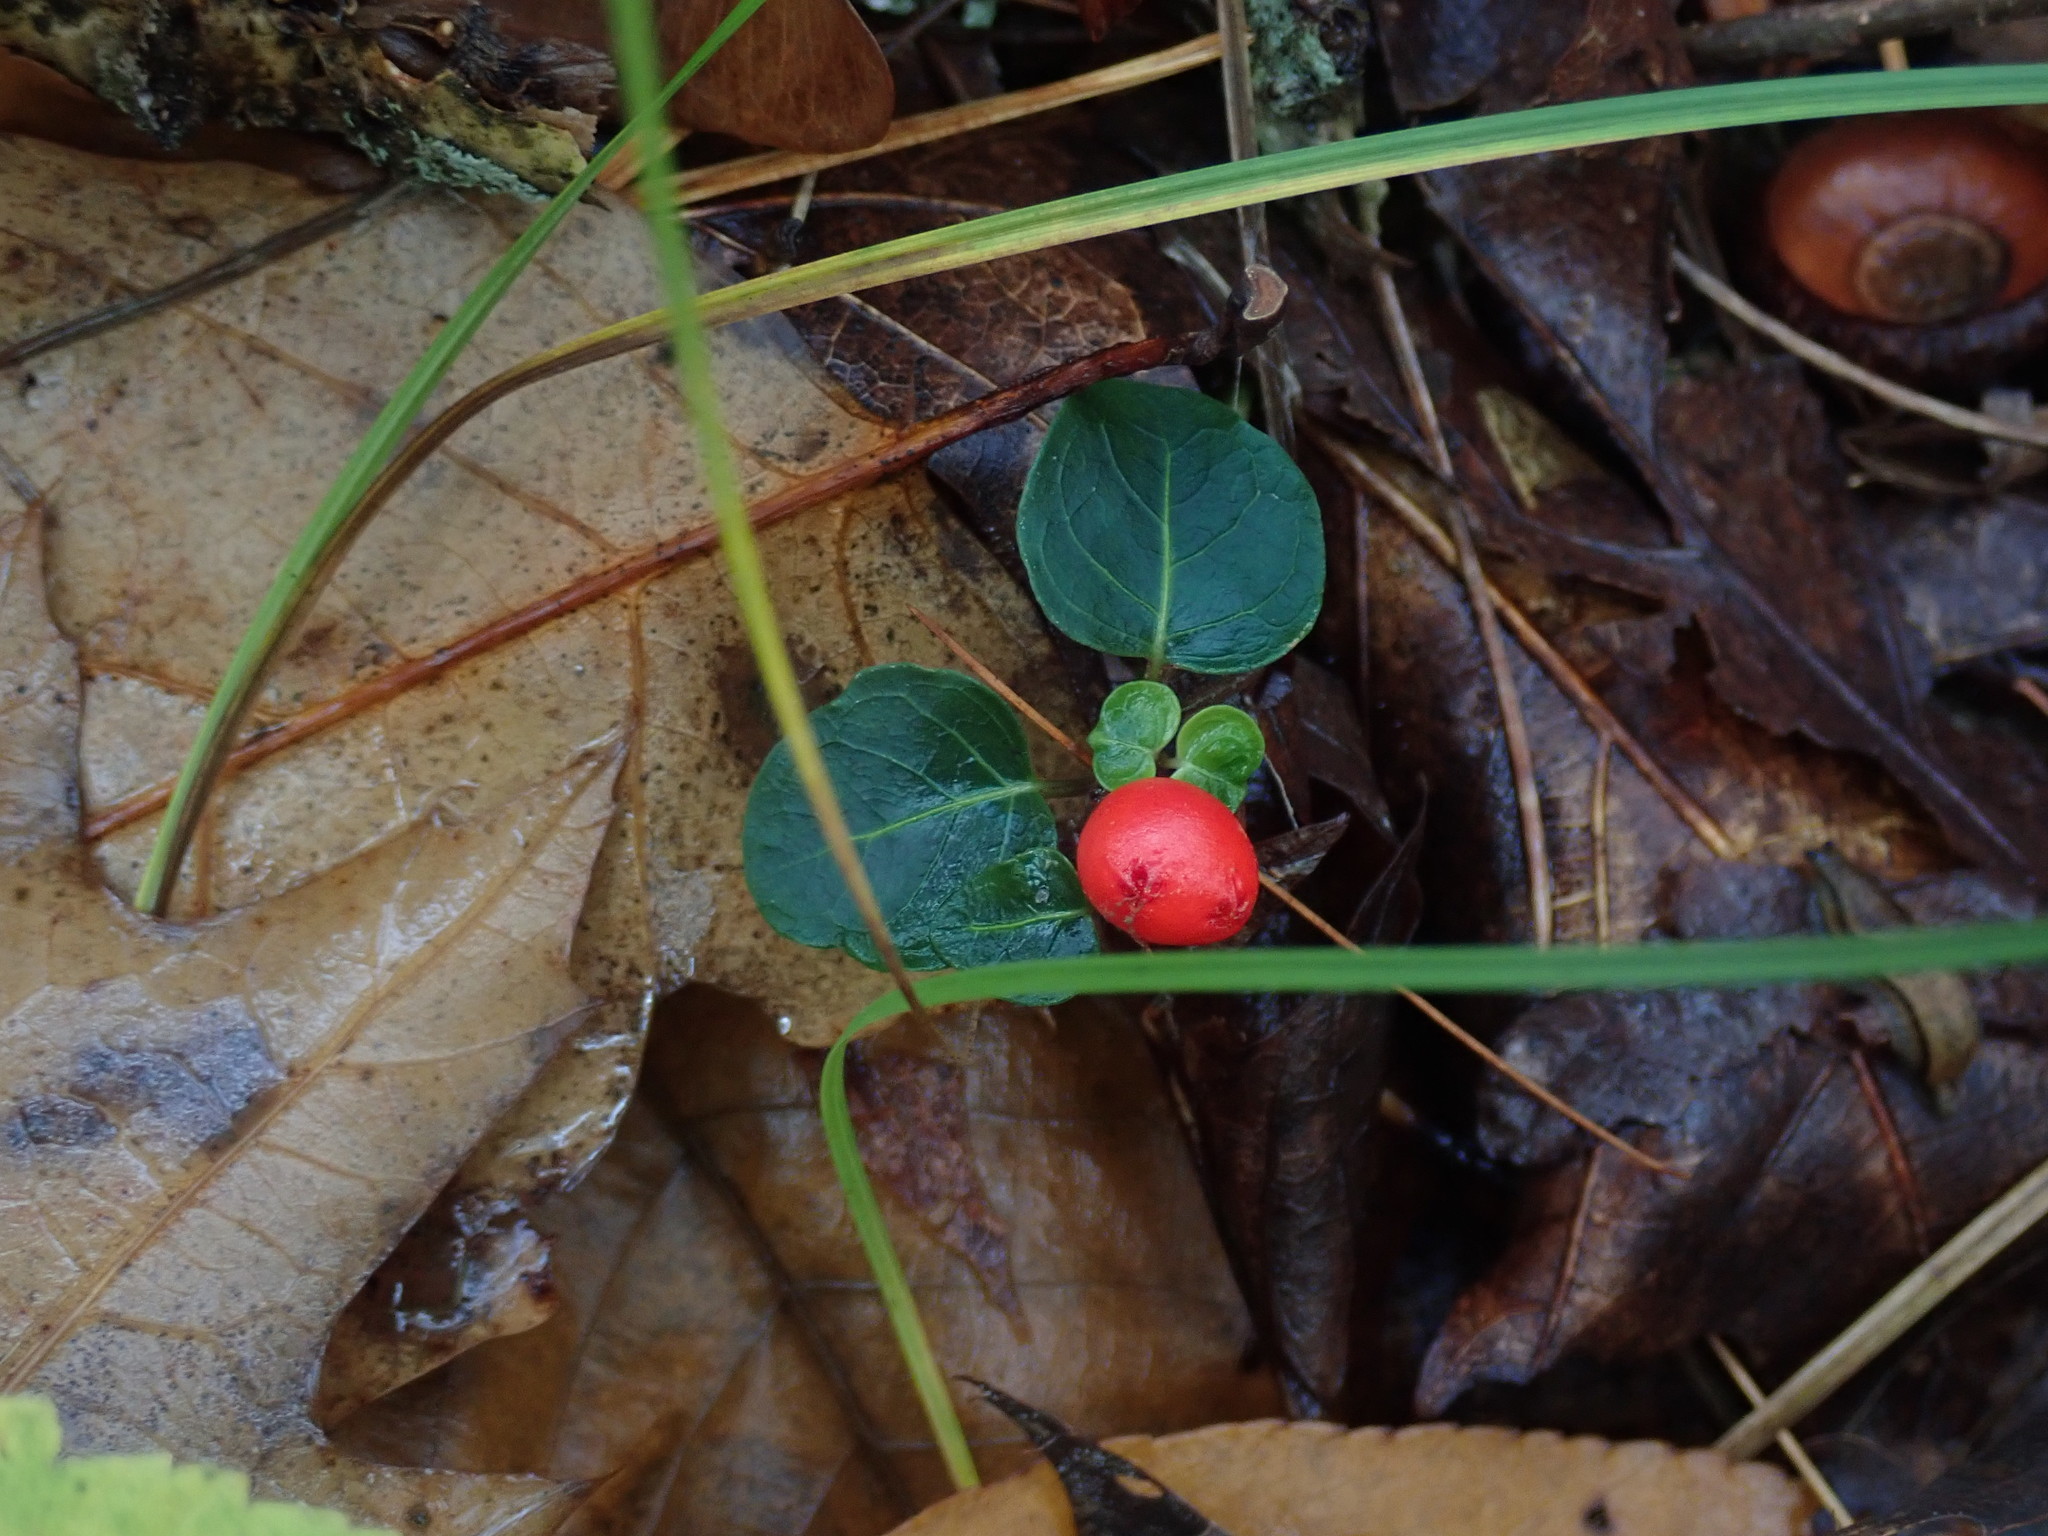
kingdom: Plantae
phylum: Tracheophyta
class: Magnoliopsida
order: Gentianales
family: Rubiaceae
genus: Mitchella
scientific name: Mitchella repens
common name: Partridge-berry
